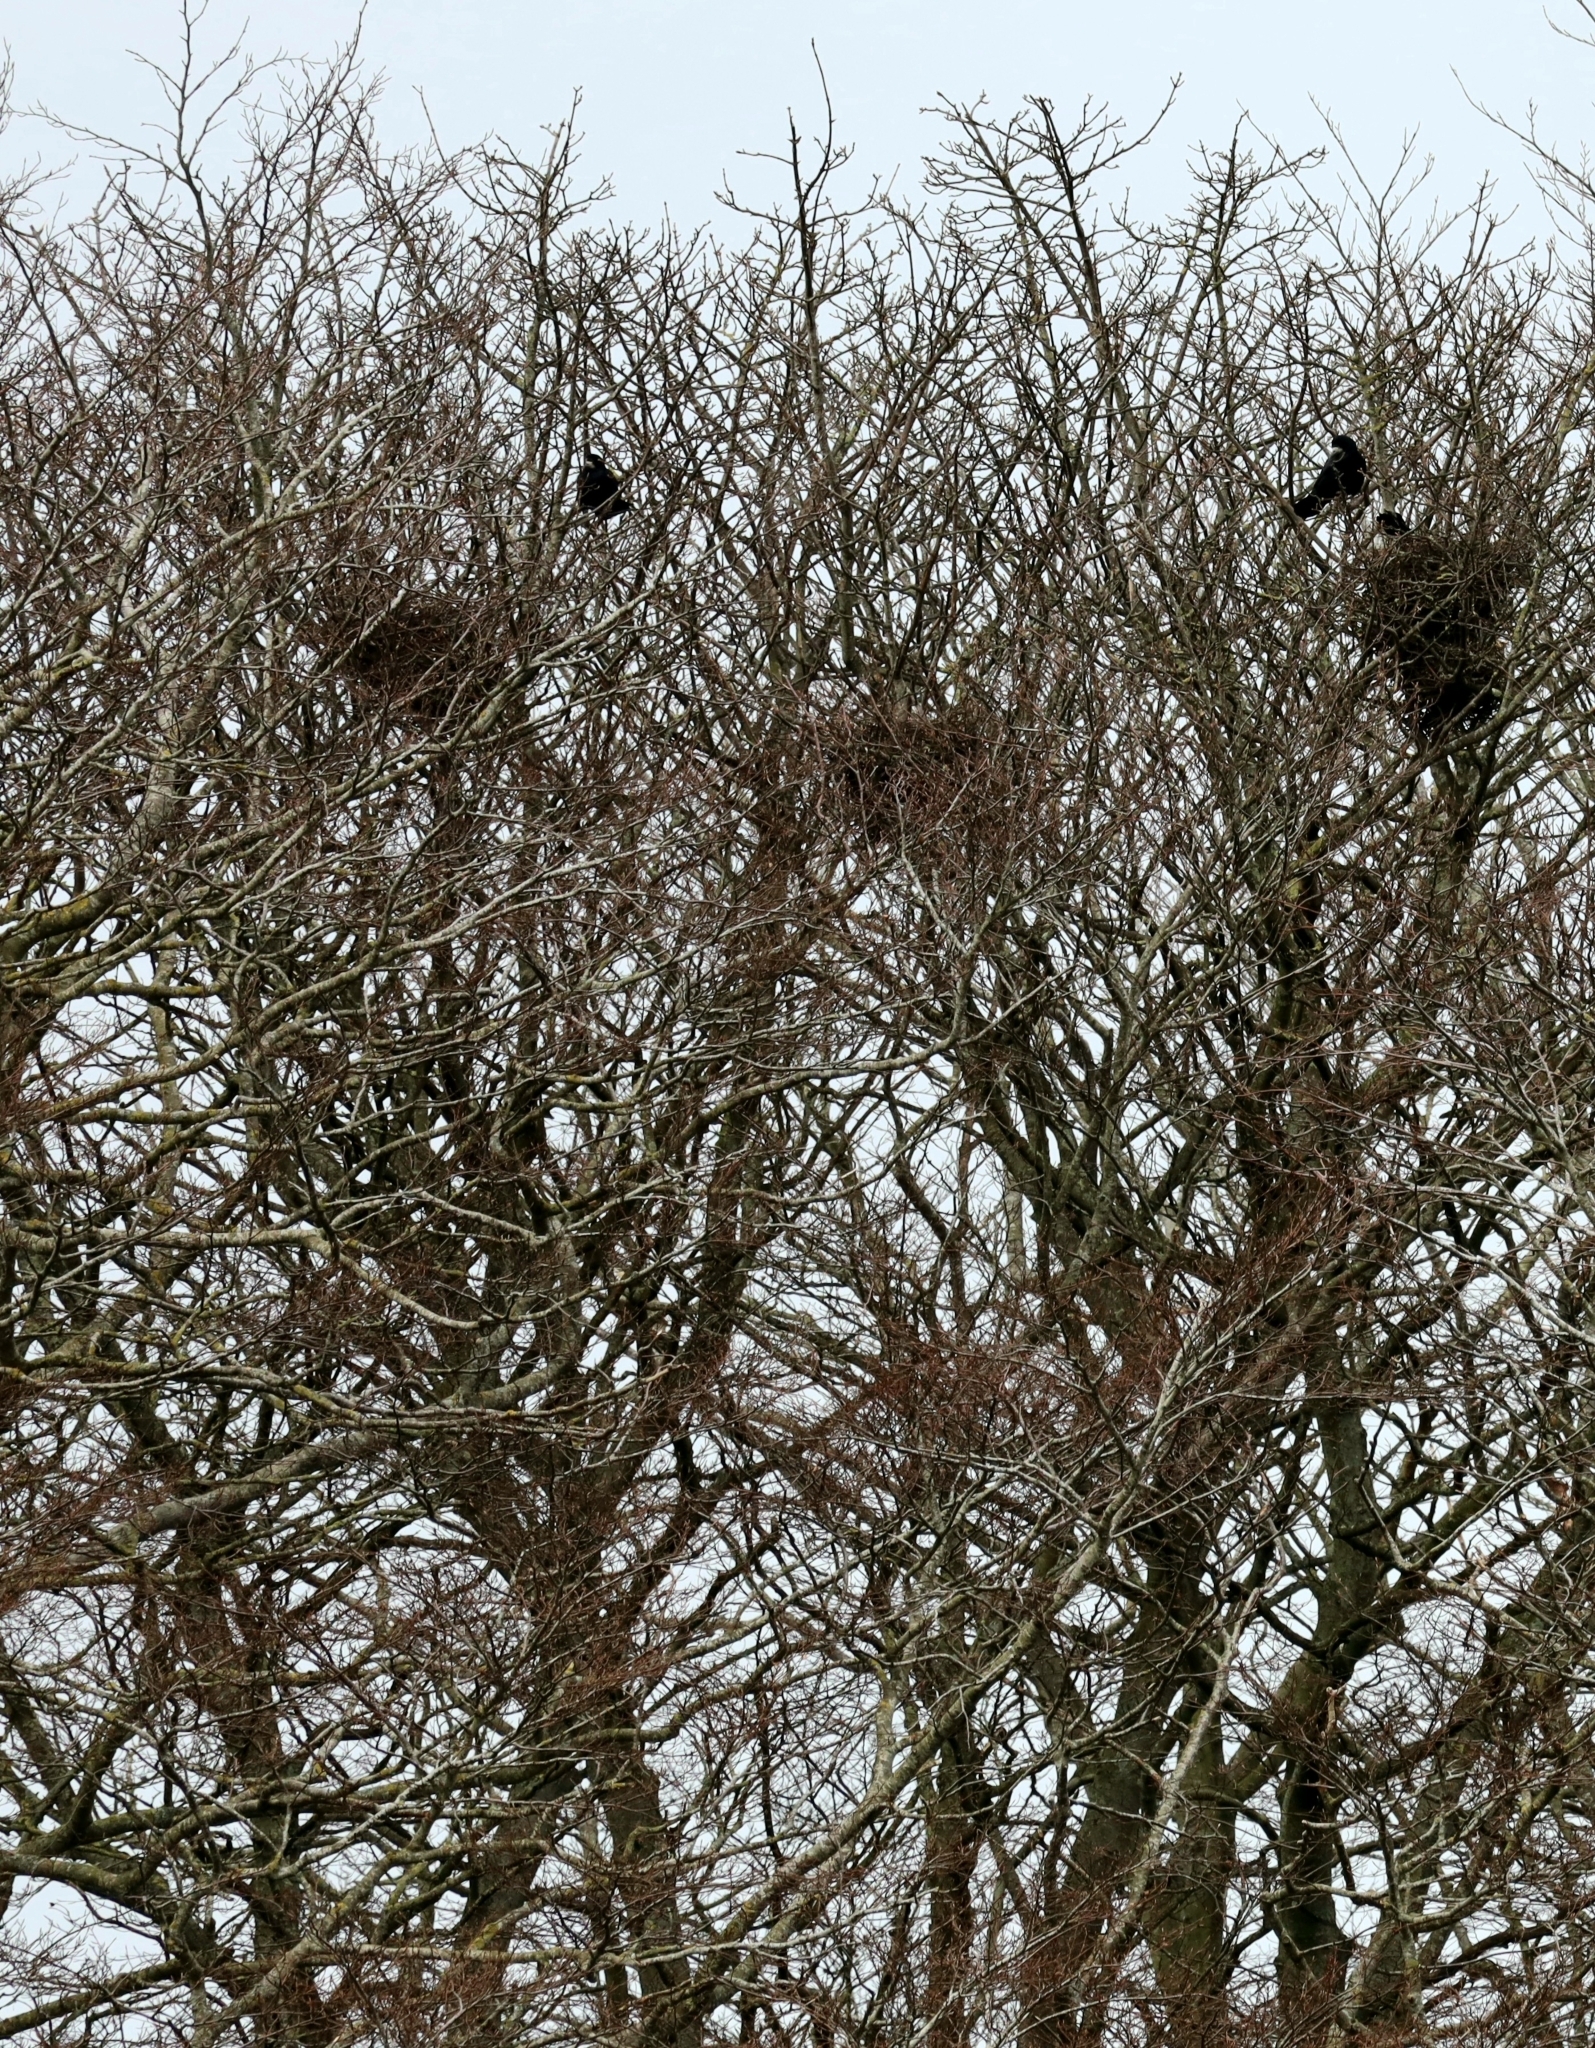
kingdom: Animalia
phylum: Chordata
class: Aves
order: Passeriformes
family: Corvidae
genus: Corvus
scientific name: Corvus frugilegus
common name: Rook
